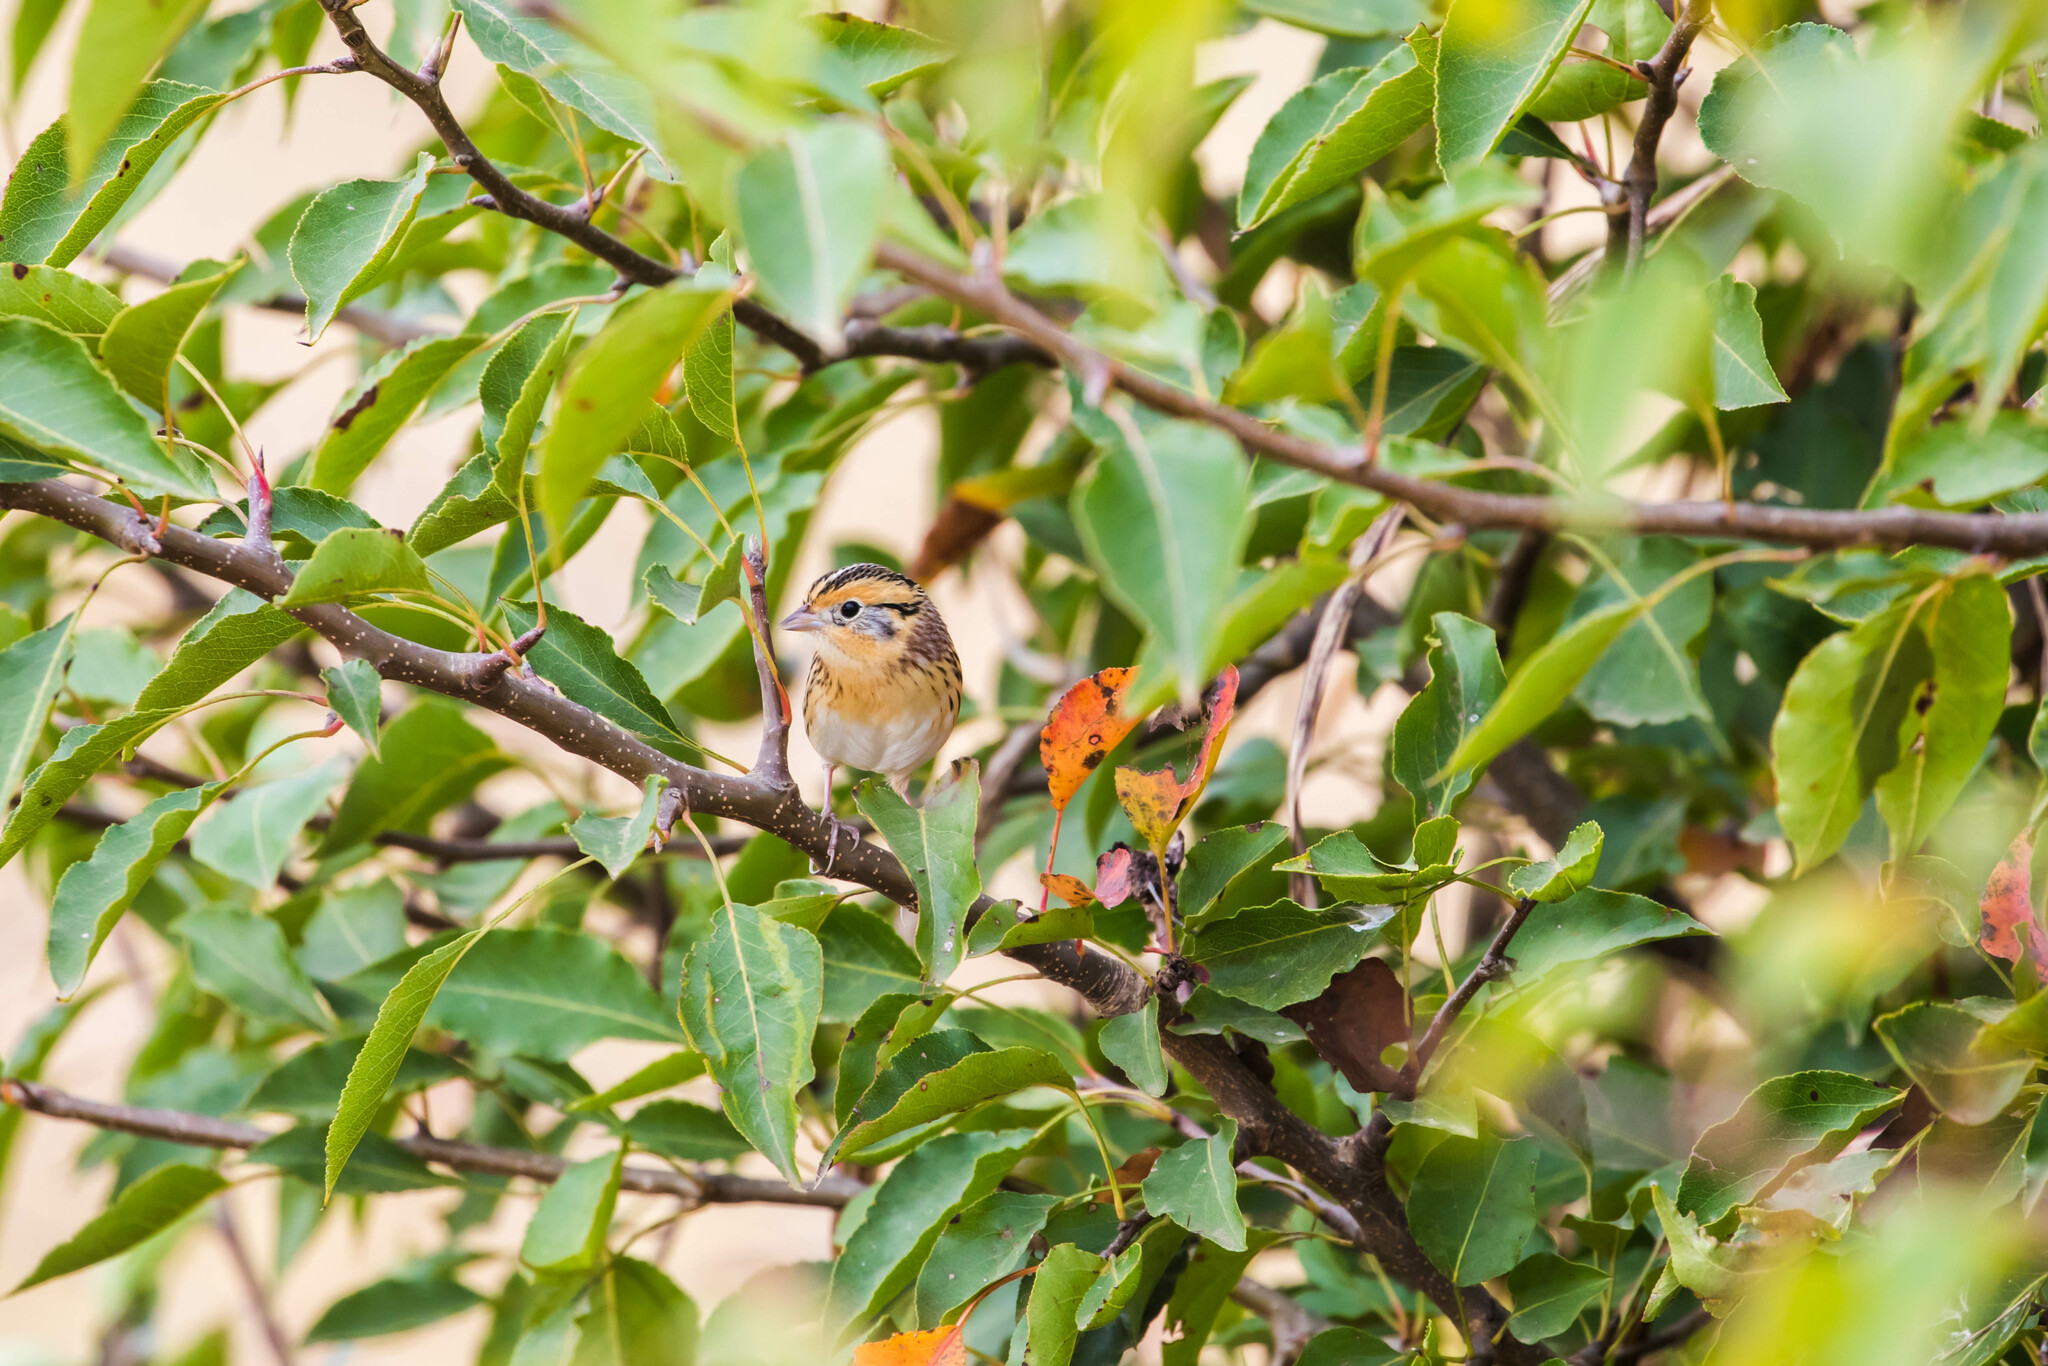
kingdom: Animalia
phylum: Chordata
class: Aves
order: Passeriformes
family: Passerellidae
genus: Ammospiza
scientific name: Ammospiza leconteii
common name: Le conte's sparrow
